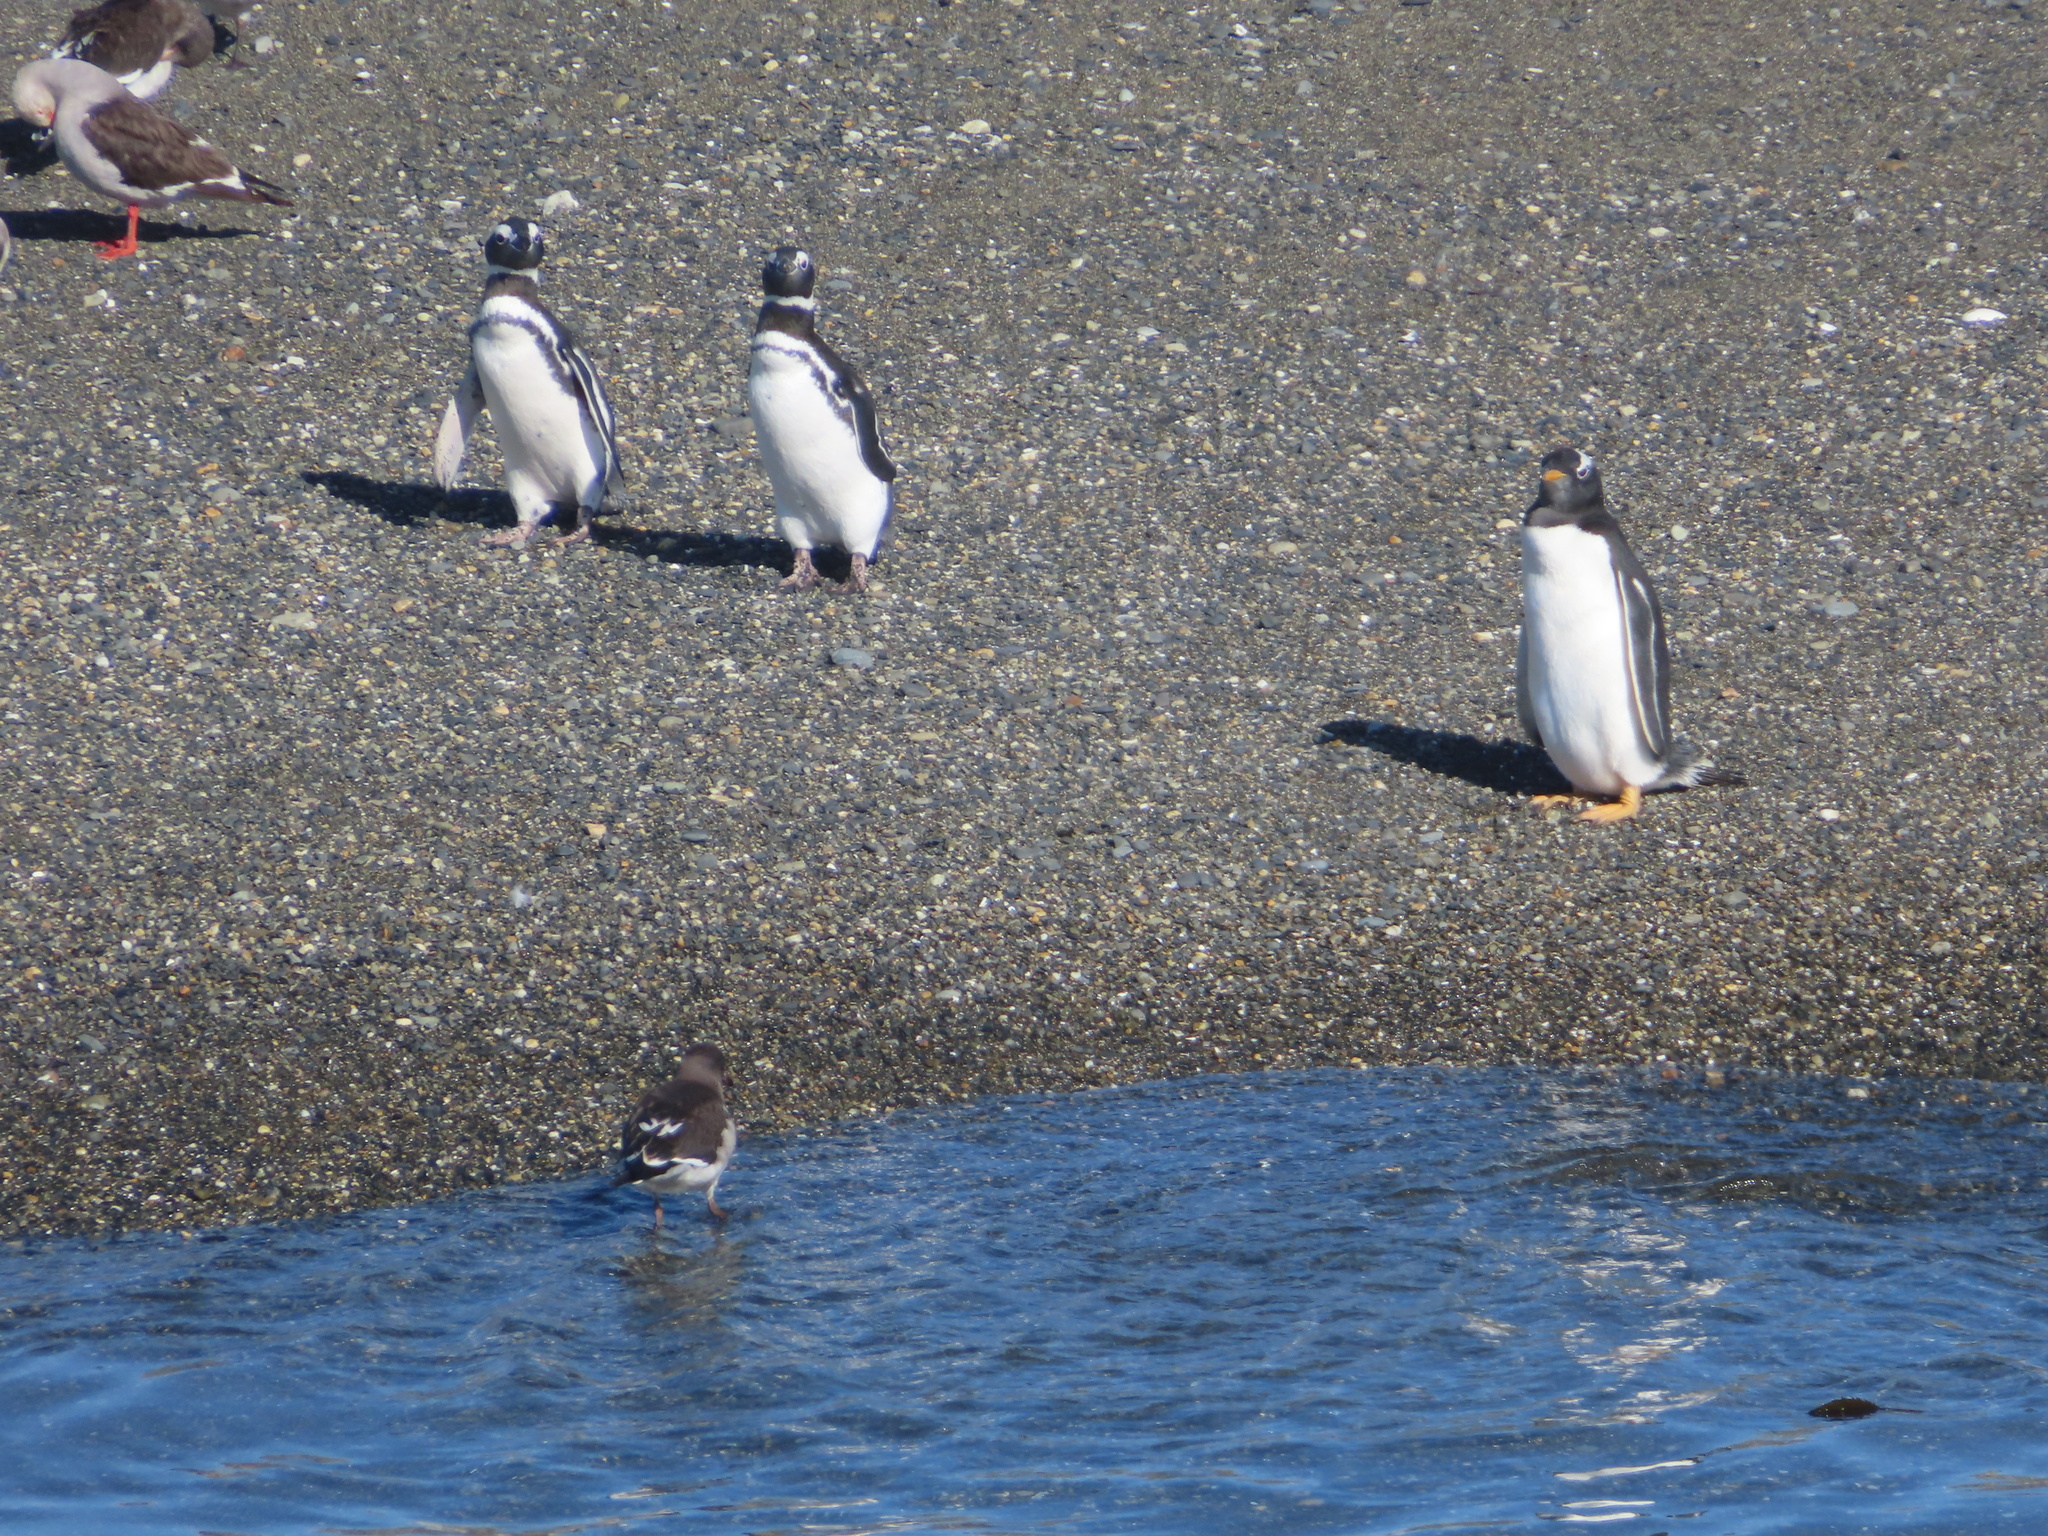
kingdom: Animalia
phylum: Chordata
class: Aves
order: Sphenisciformes
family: Spheniscidae
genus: Pygoscelis
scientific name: Pygoscelis papua
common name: Gentoo penguin
